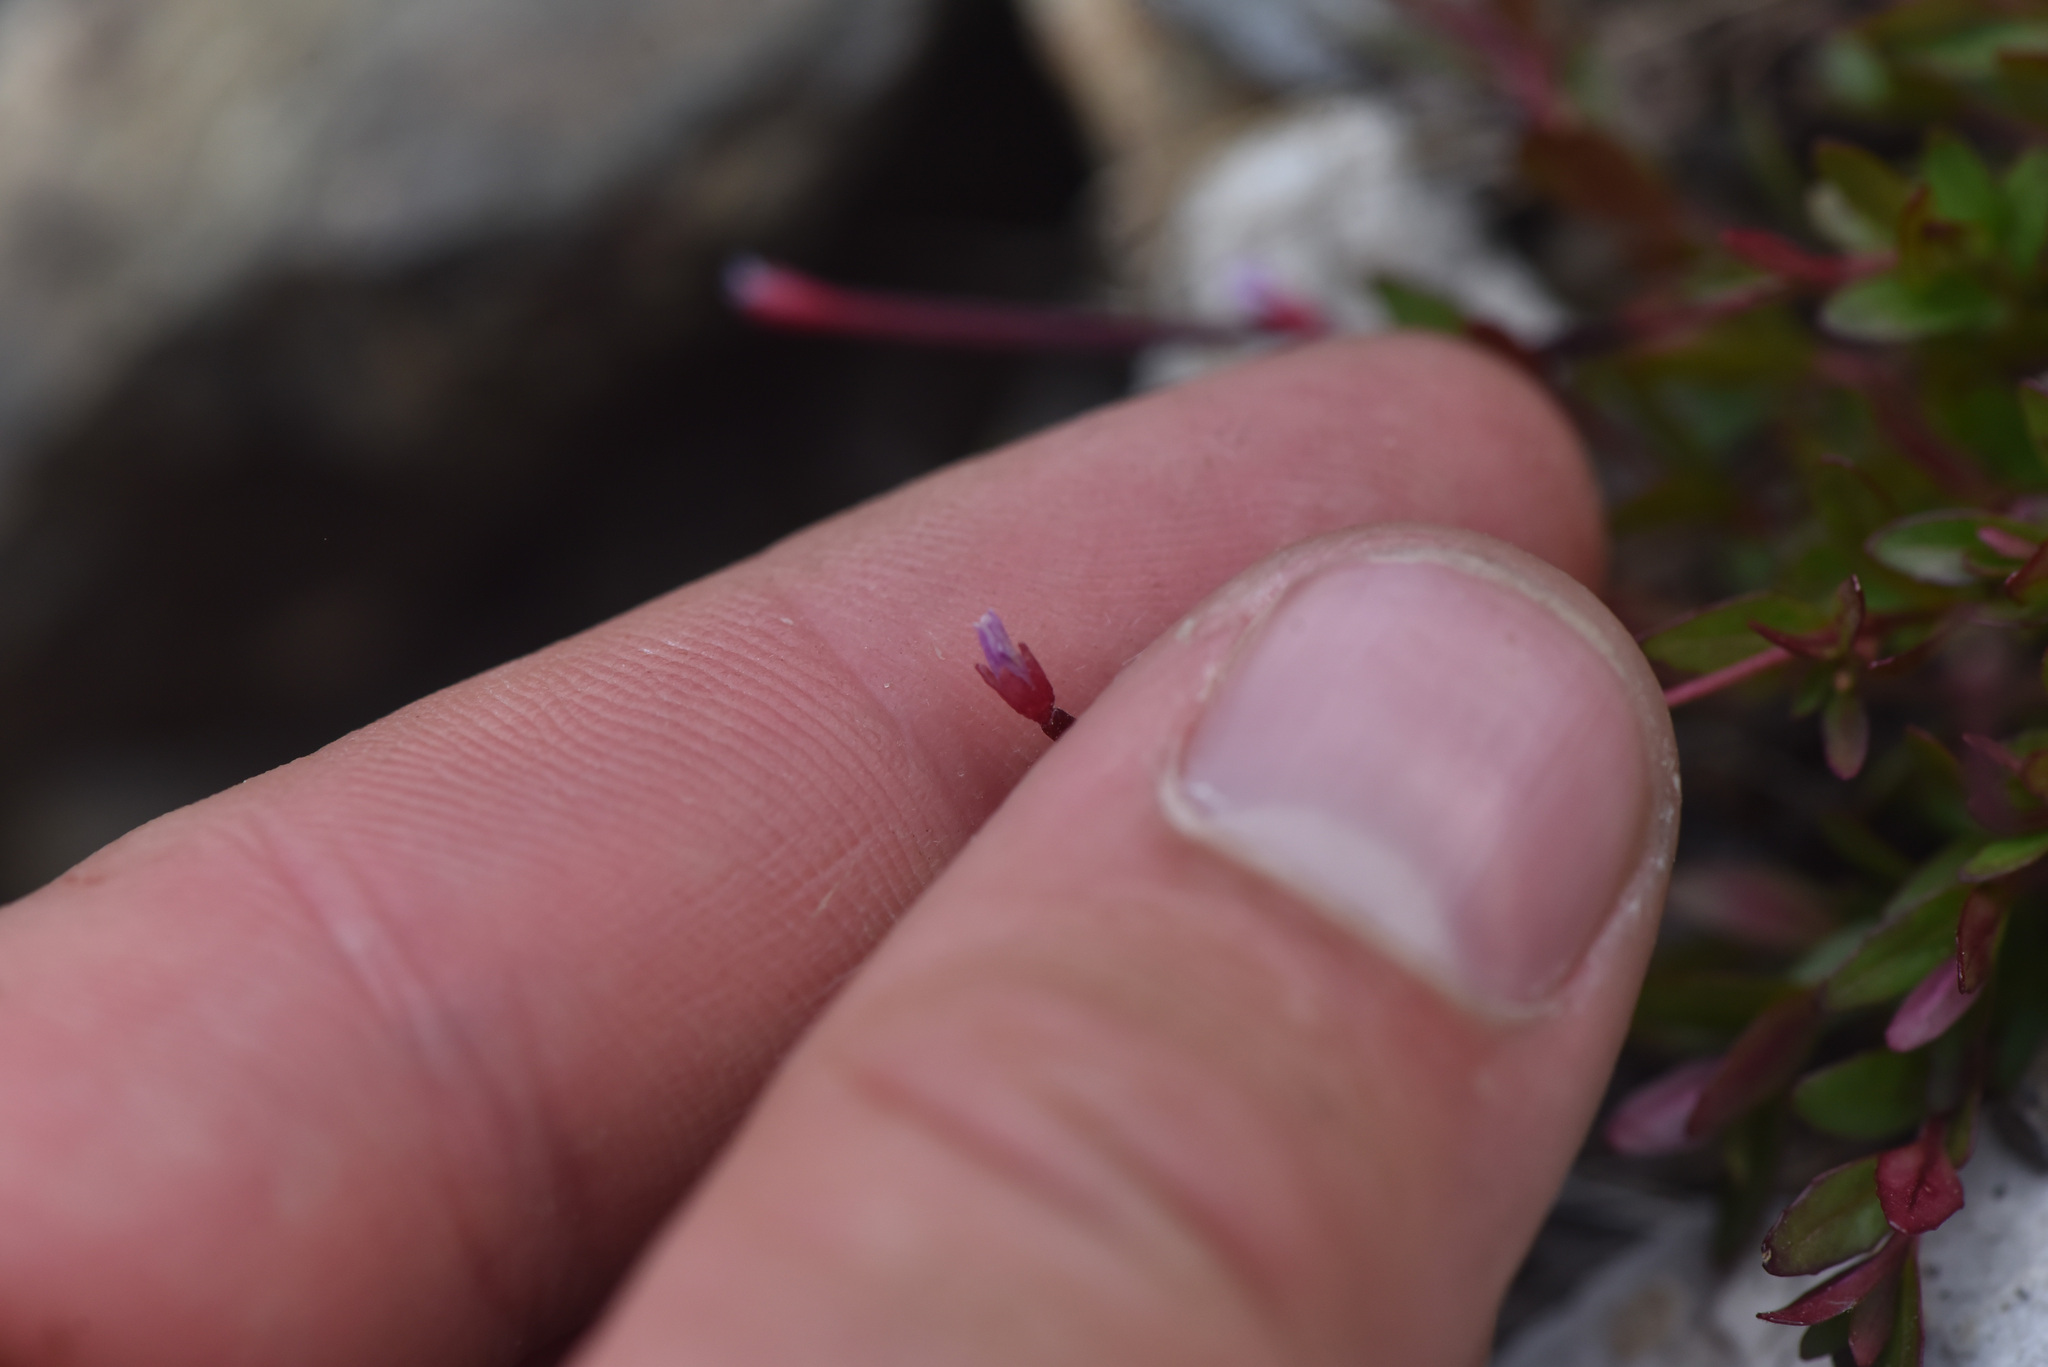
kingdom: Plantae
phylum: Tracheophyta
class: Magnoliopsida
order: Myrtales
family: Onagraceae
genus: Epilobium
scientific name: Epilobium anagallidifolium
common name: Alpine willowherb
